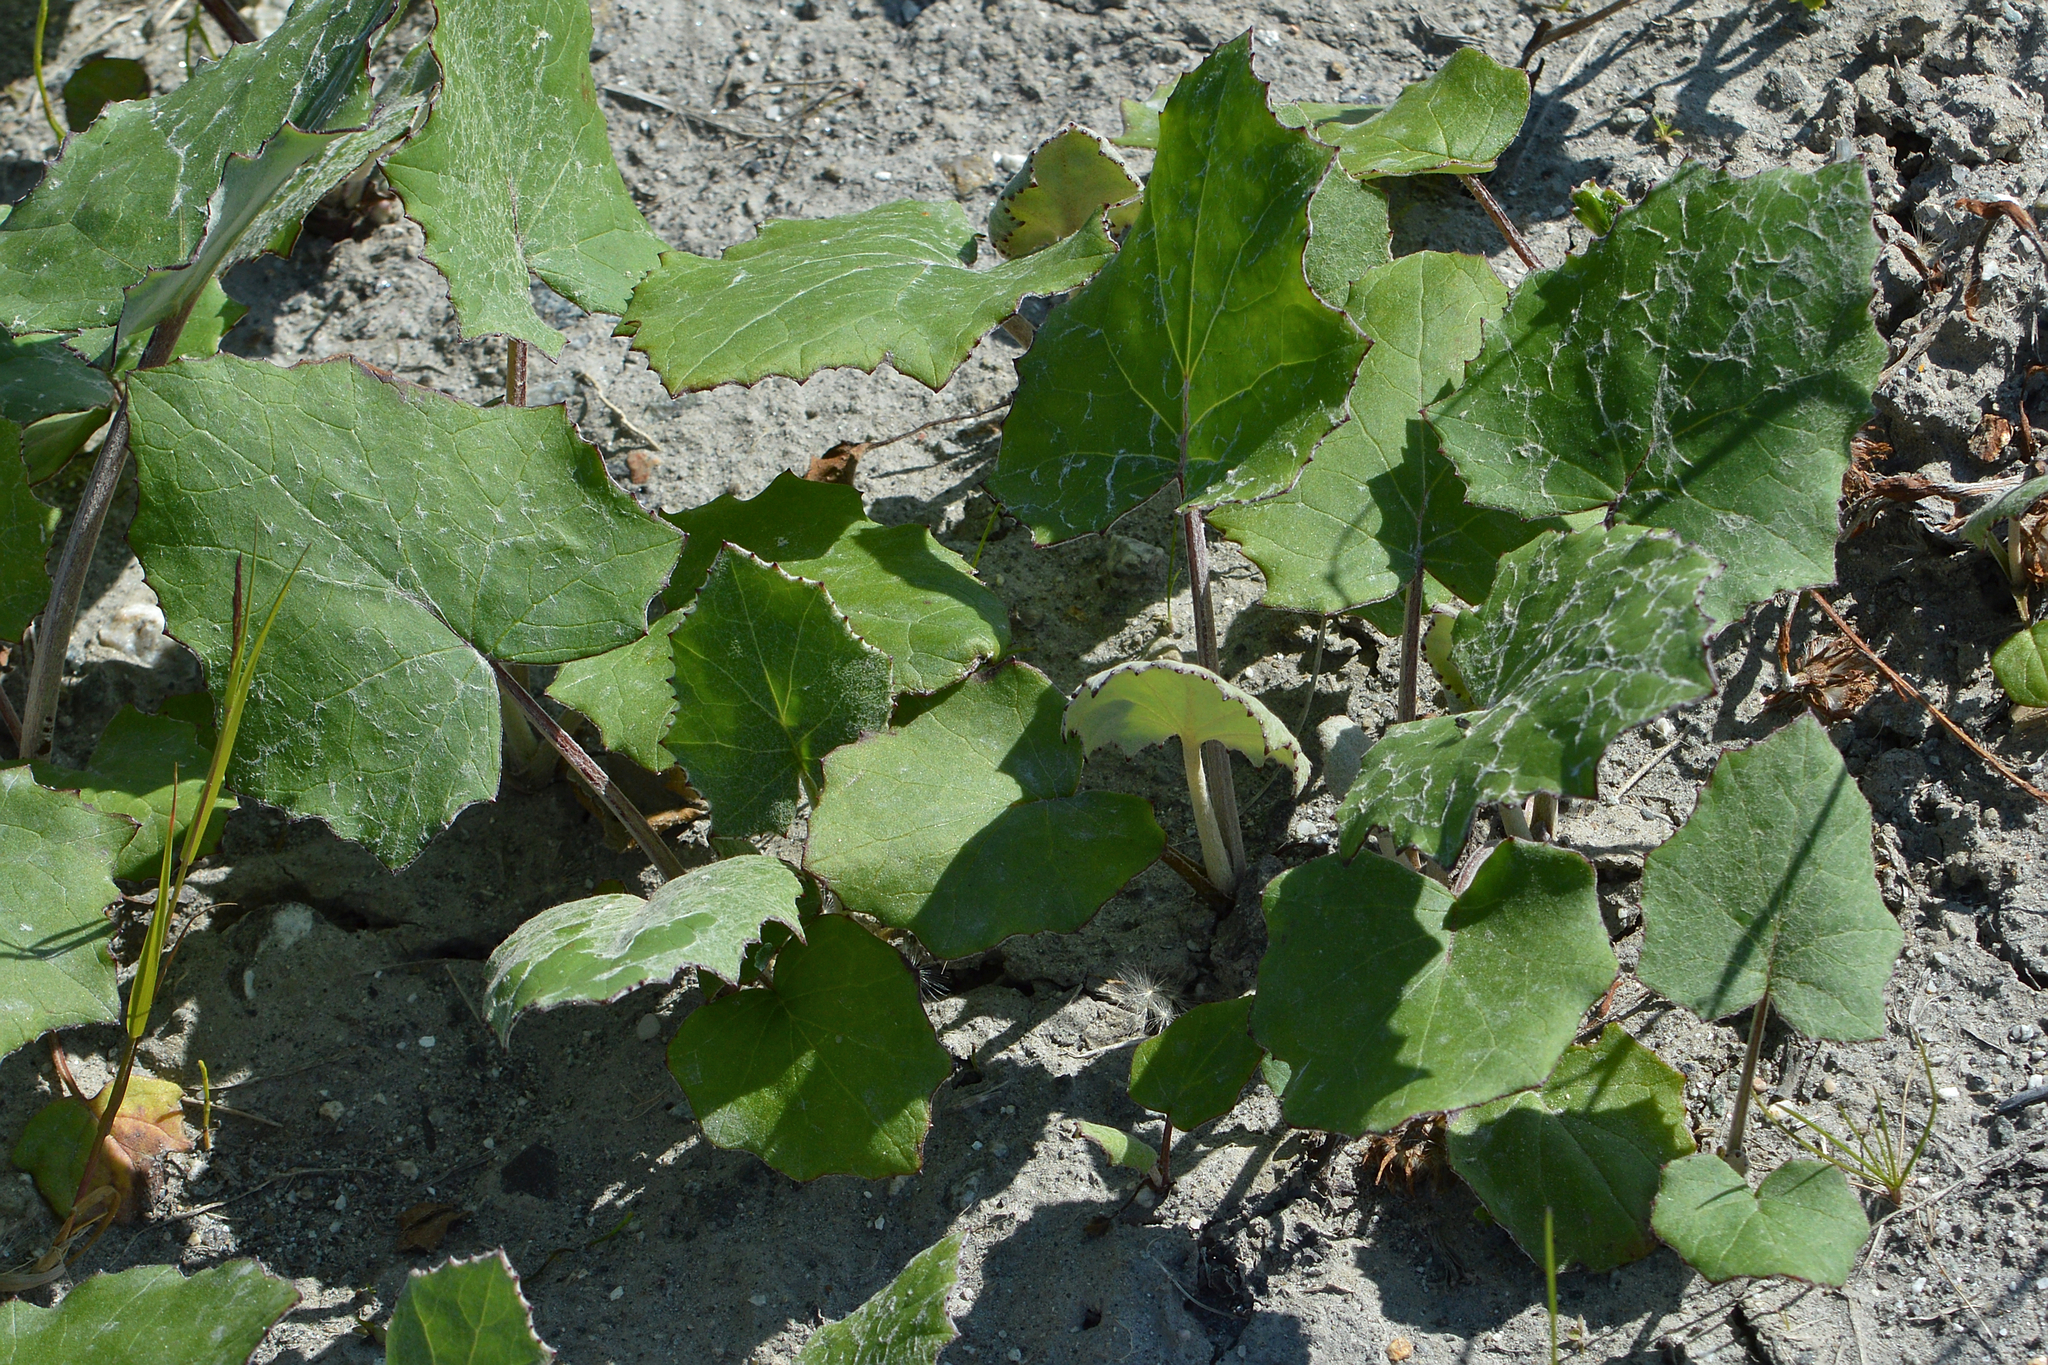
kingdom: Plantae
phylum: Tracheophyta
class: Magnoliopsida
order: Asterales
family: Asteraceae
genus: Tussilago
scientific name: Tussilago farfara
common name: Coltsfoot
